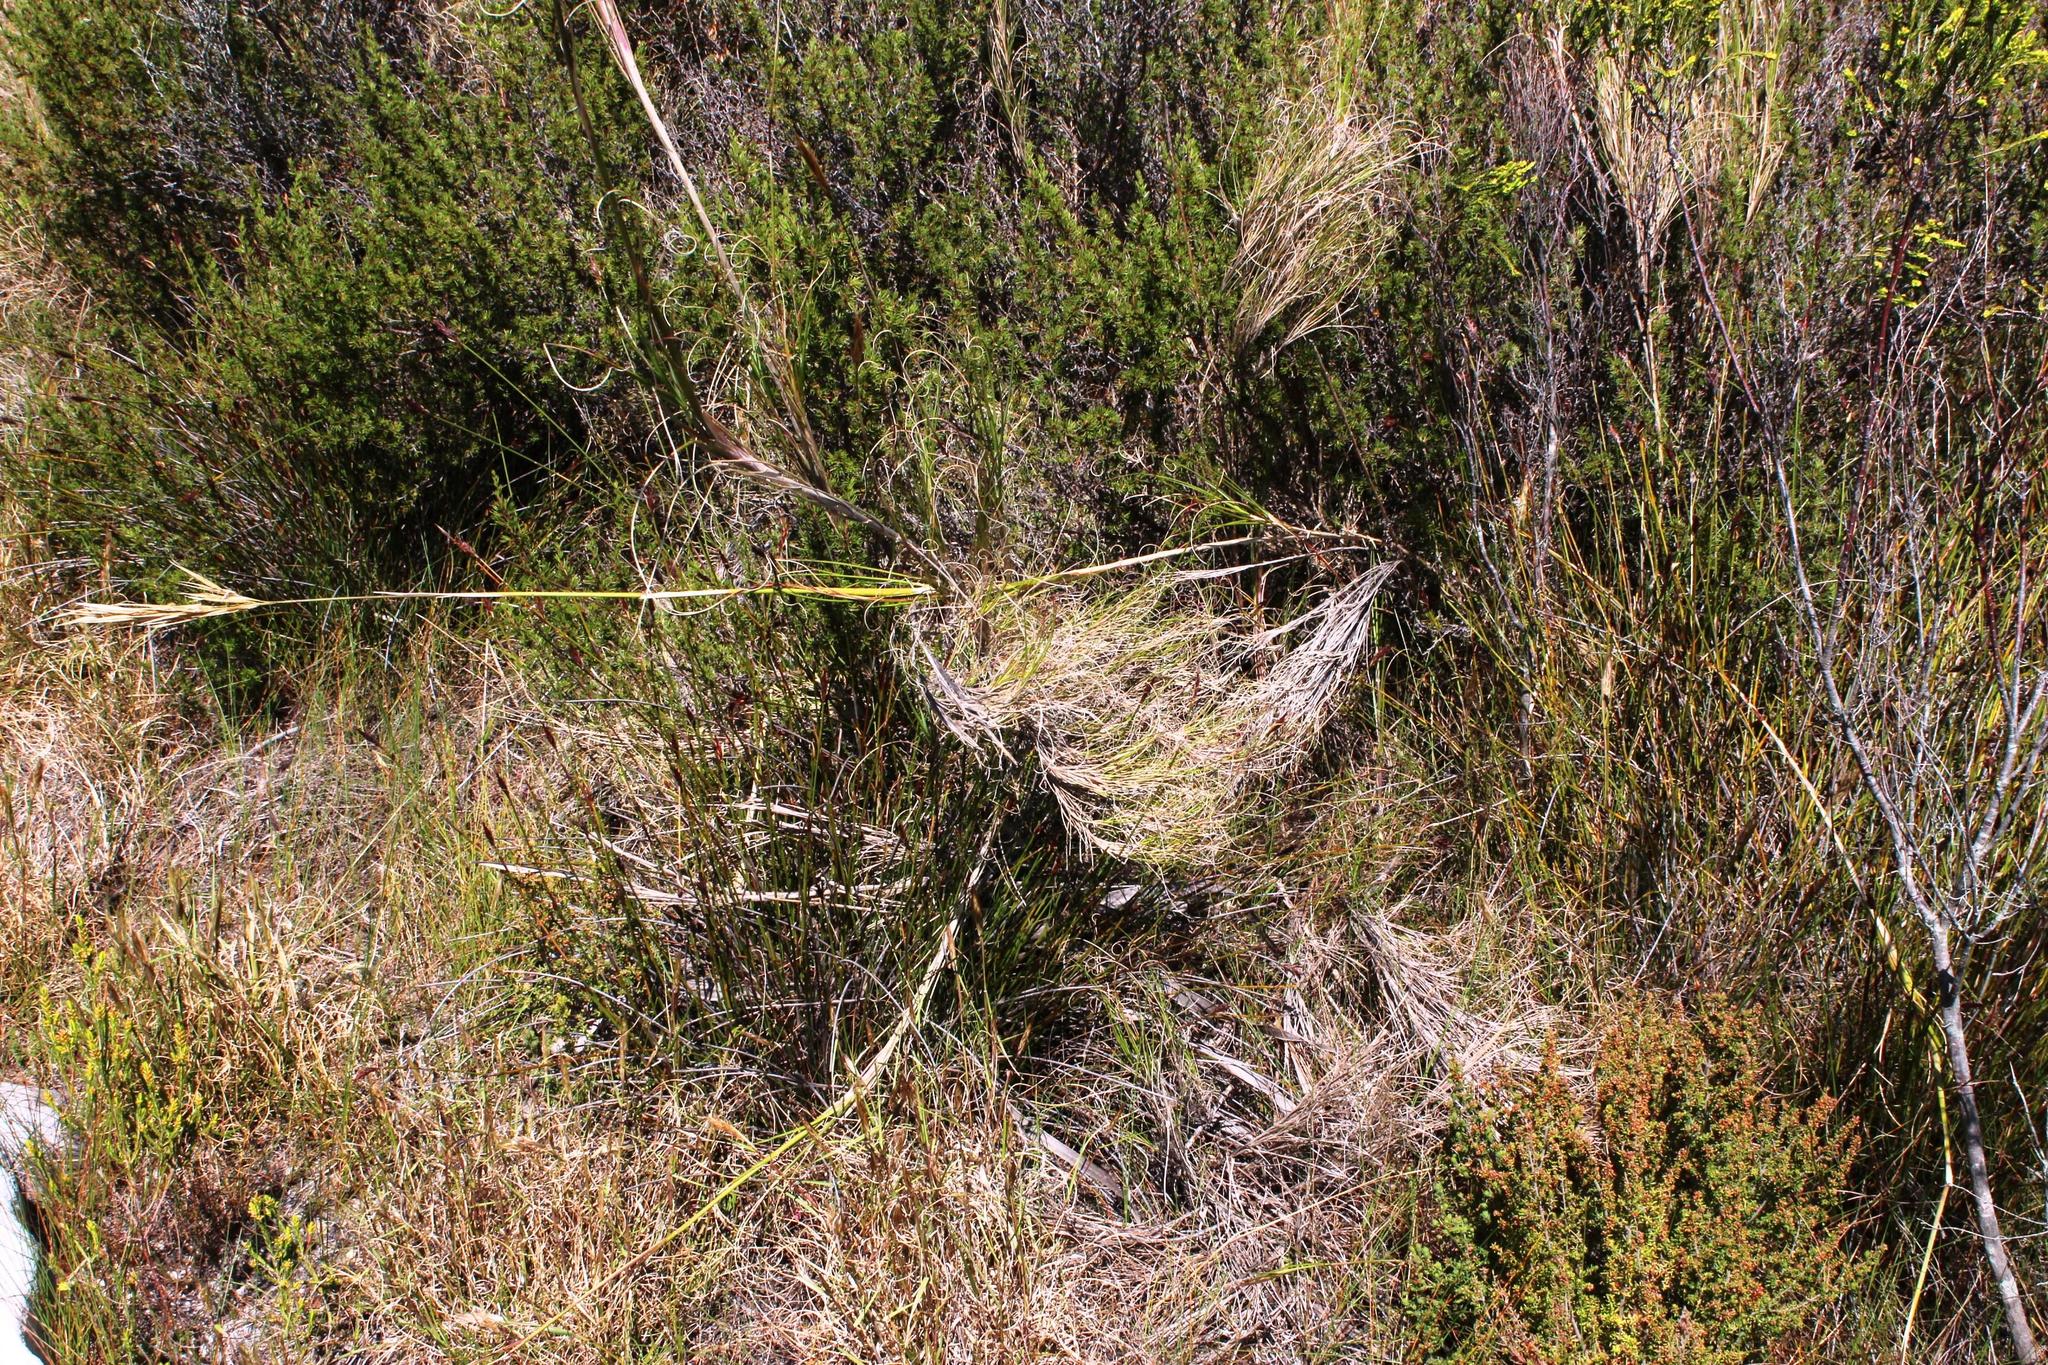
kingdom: Plantae
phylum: Tracheophyta
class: Liliopsida
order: Poales
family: Poaceae
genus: Pseudopentameris
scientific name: Pseudopentameris macrantha
